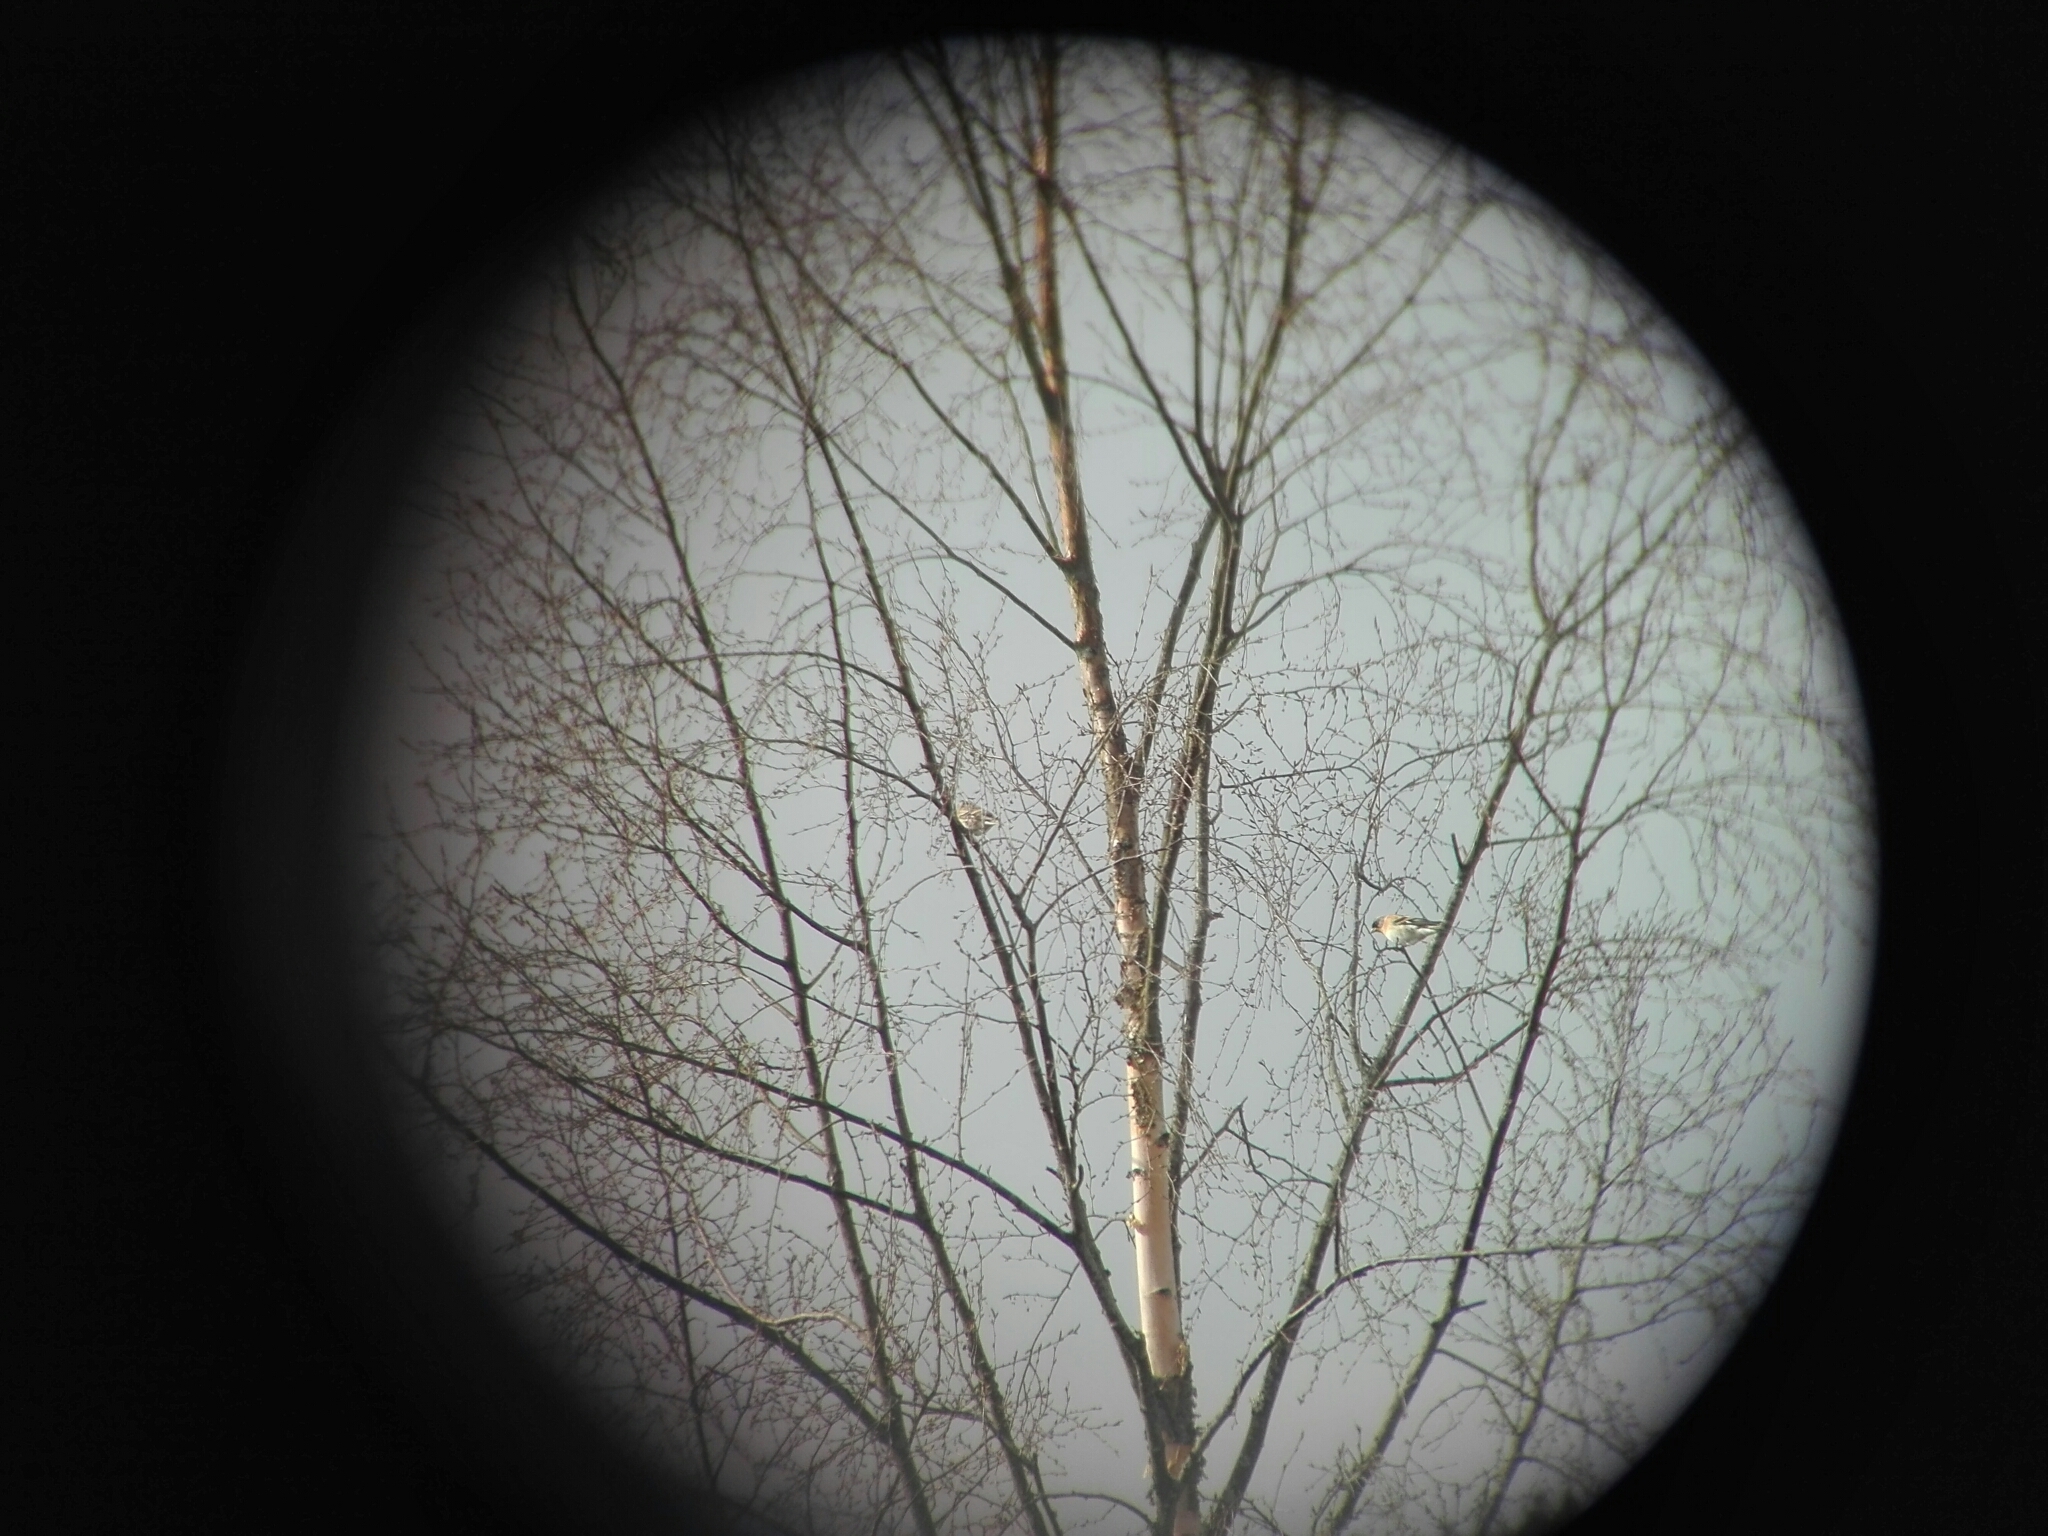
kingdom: Animalia
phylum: Chordata
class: Aves
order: Passeriformes
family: Fringillidae
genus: Fringilla
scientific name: Fringilla montifringilla
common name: Brambling
